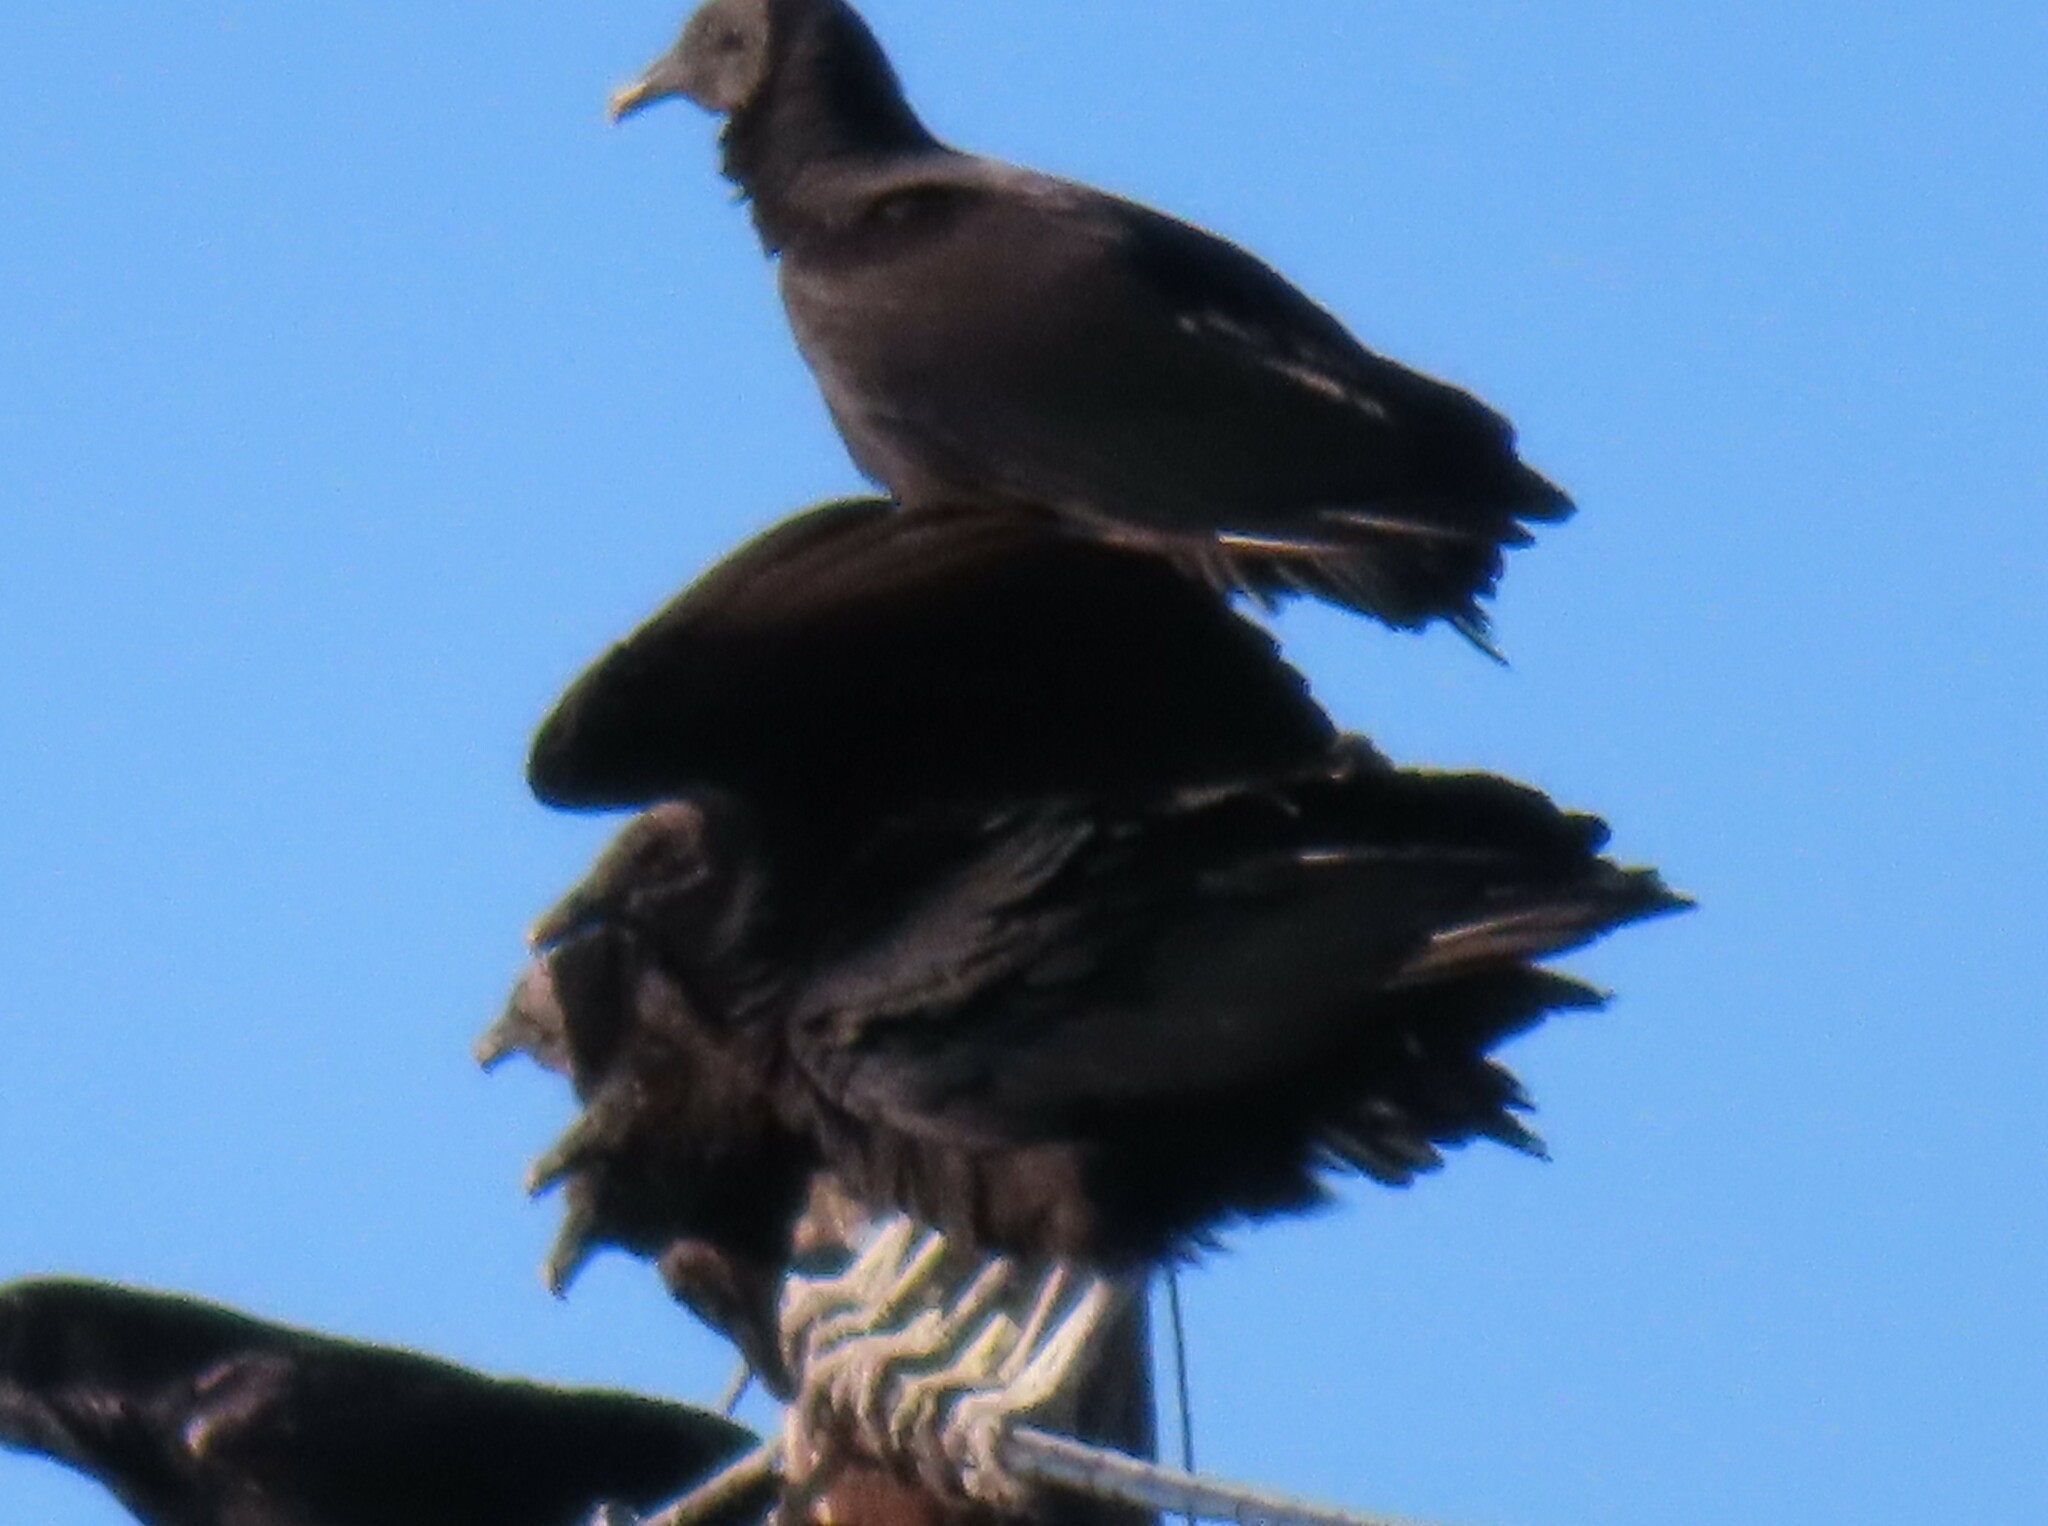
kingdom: Animalia
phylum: Chordata
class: Aves
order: Accipitriformes
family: Cathartidae
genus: Coragyps
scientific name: Coragyps atratus
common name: Black vulture
